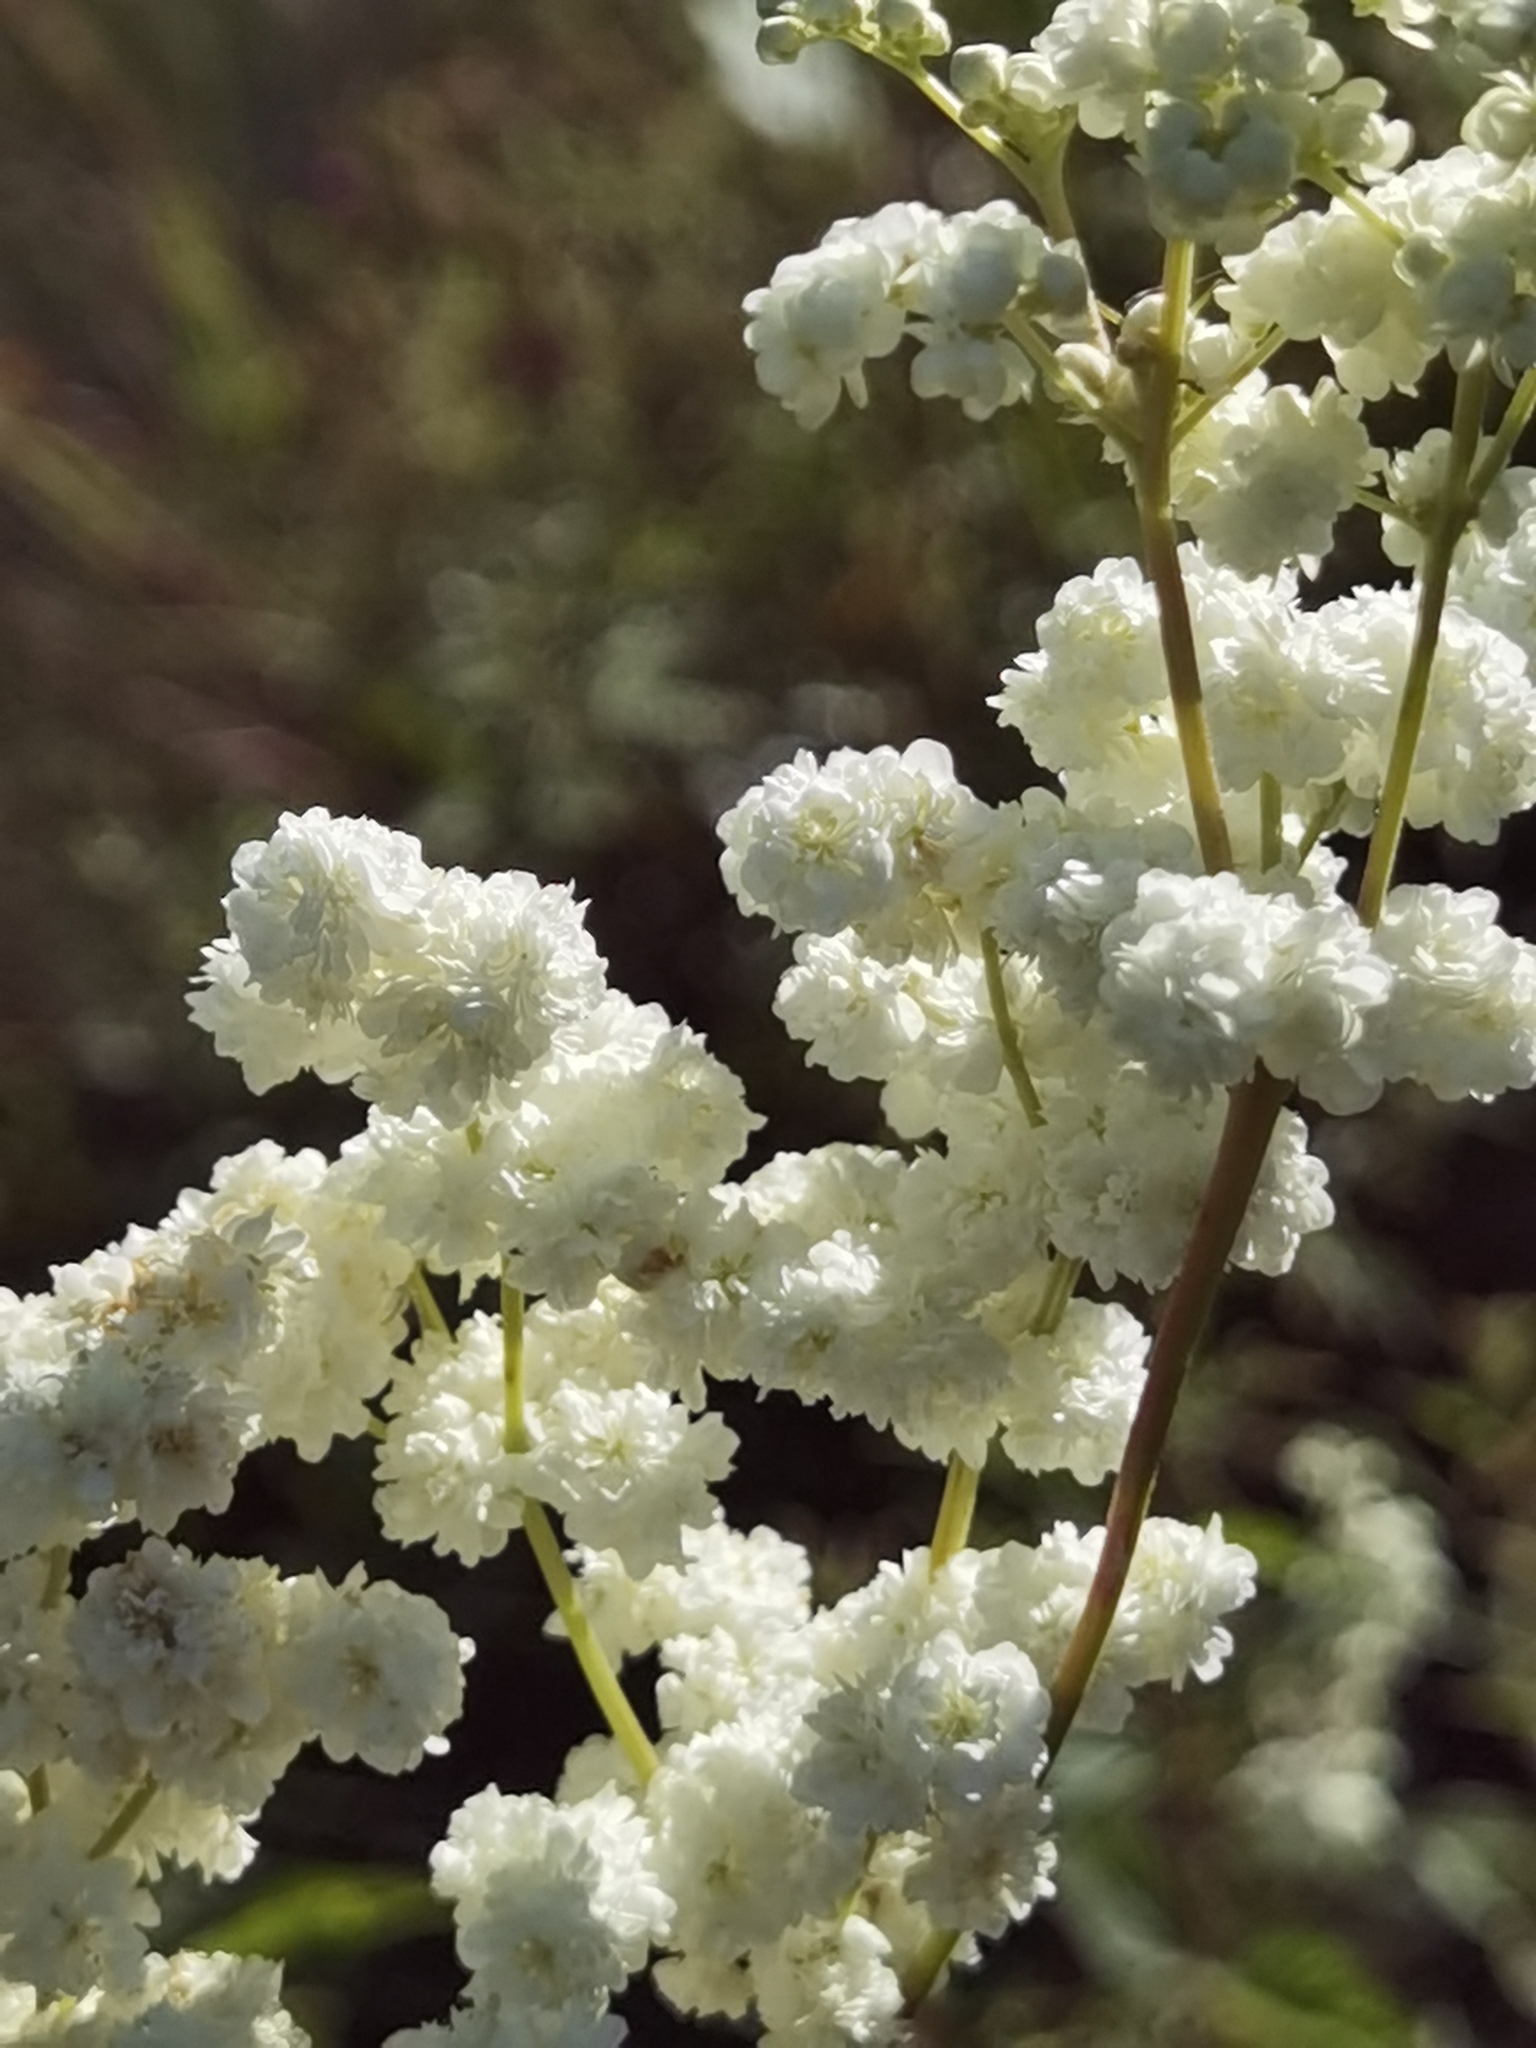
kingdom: Plantae
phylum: Tracheophyta
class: Magnoliopsida
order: Rosales
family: Rosaceae
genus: Filipendula
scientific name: Filipendula ulmaria
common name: Meadowsweet
